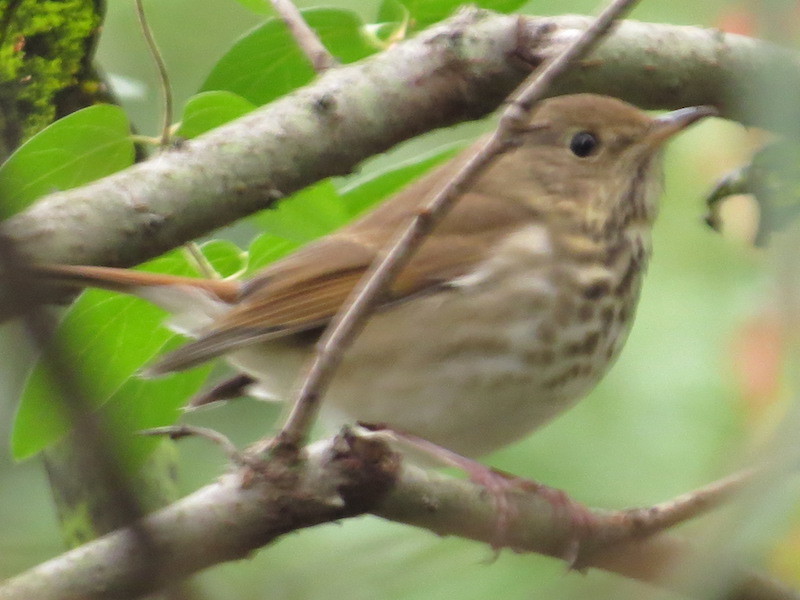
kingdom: Animalia
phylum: Chordata
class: Aves
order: Passeriformes
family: Turdidae
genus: Catharus
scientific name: Catharus guttatus
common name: Hermit thrush
